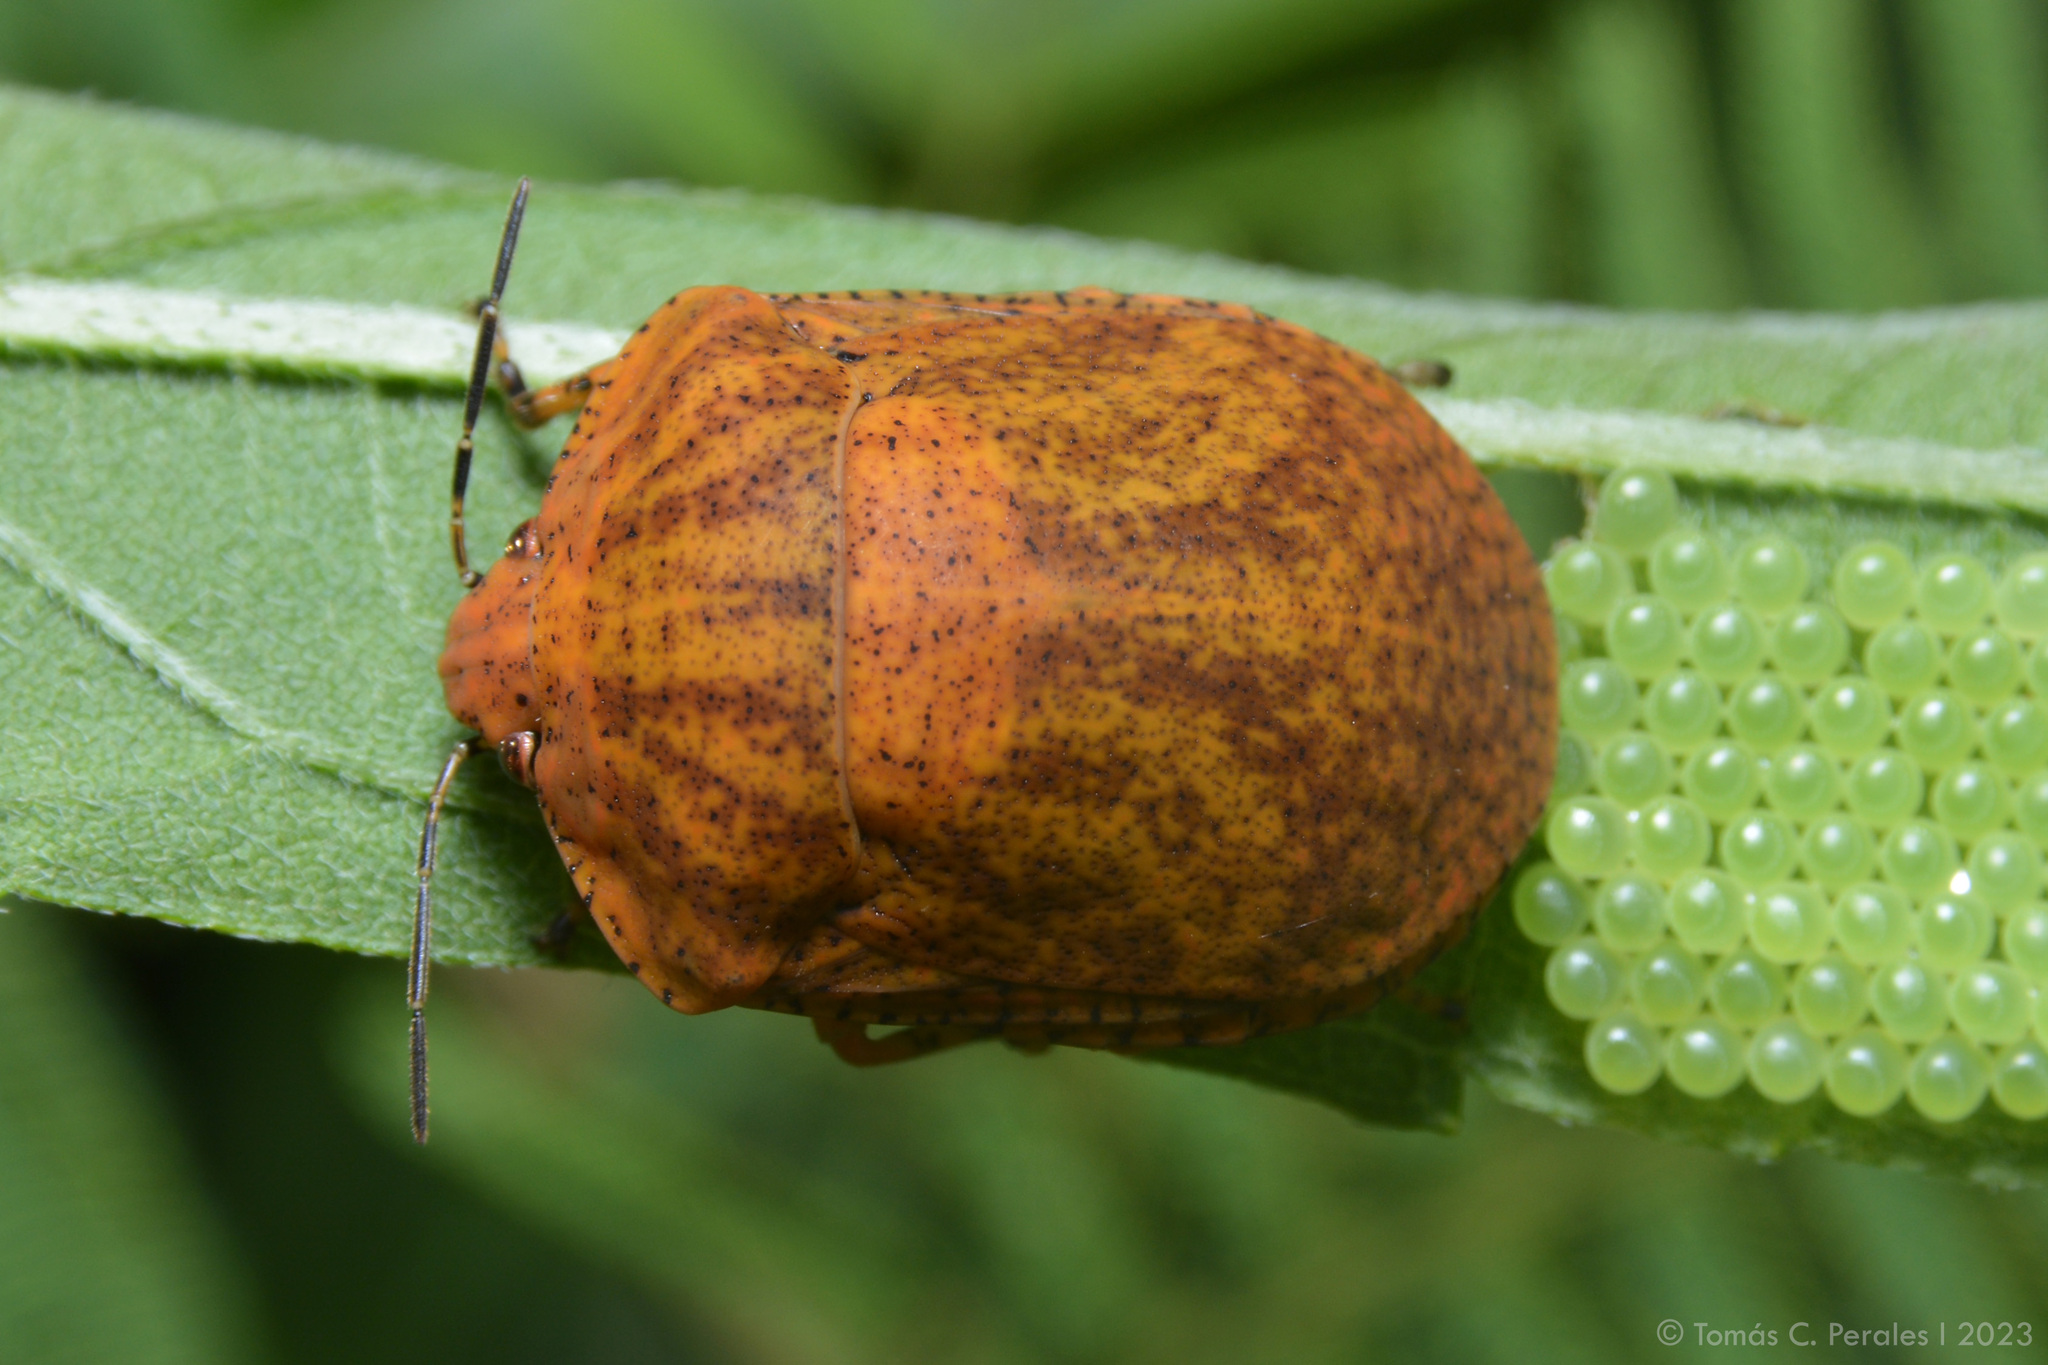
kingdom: Animalia
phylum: Arthropoda
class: Insecta
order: Hemiptera
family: Scutelleridae
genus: Tetyra
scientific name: Tetyra
